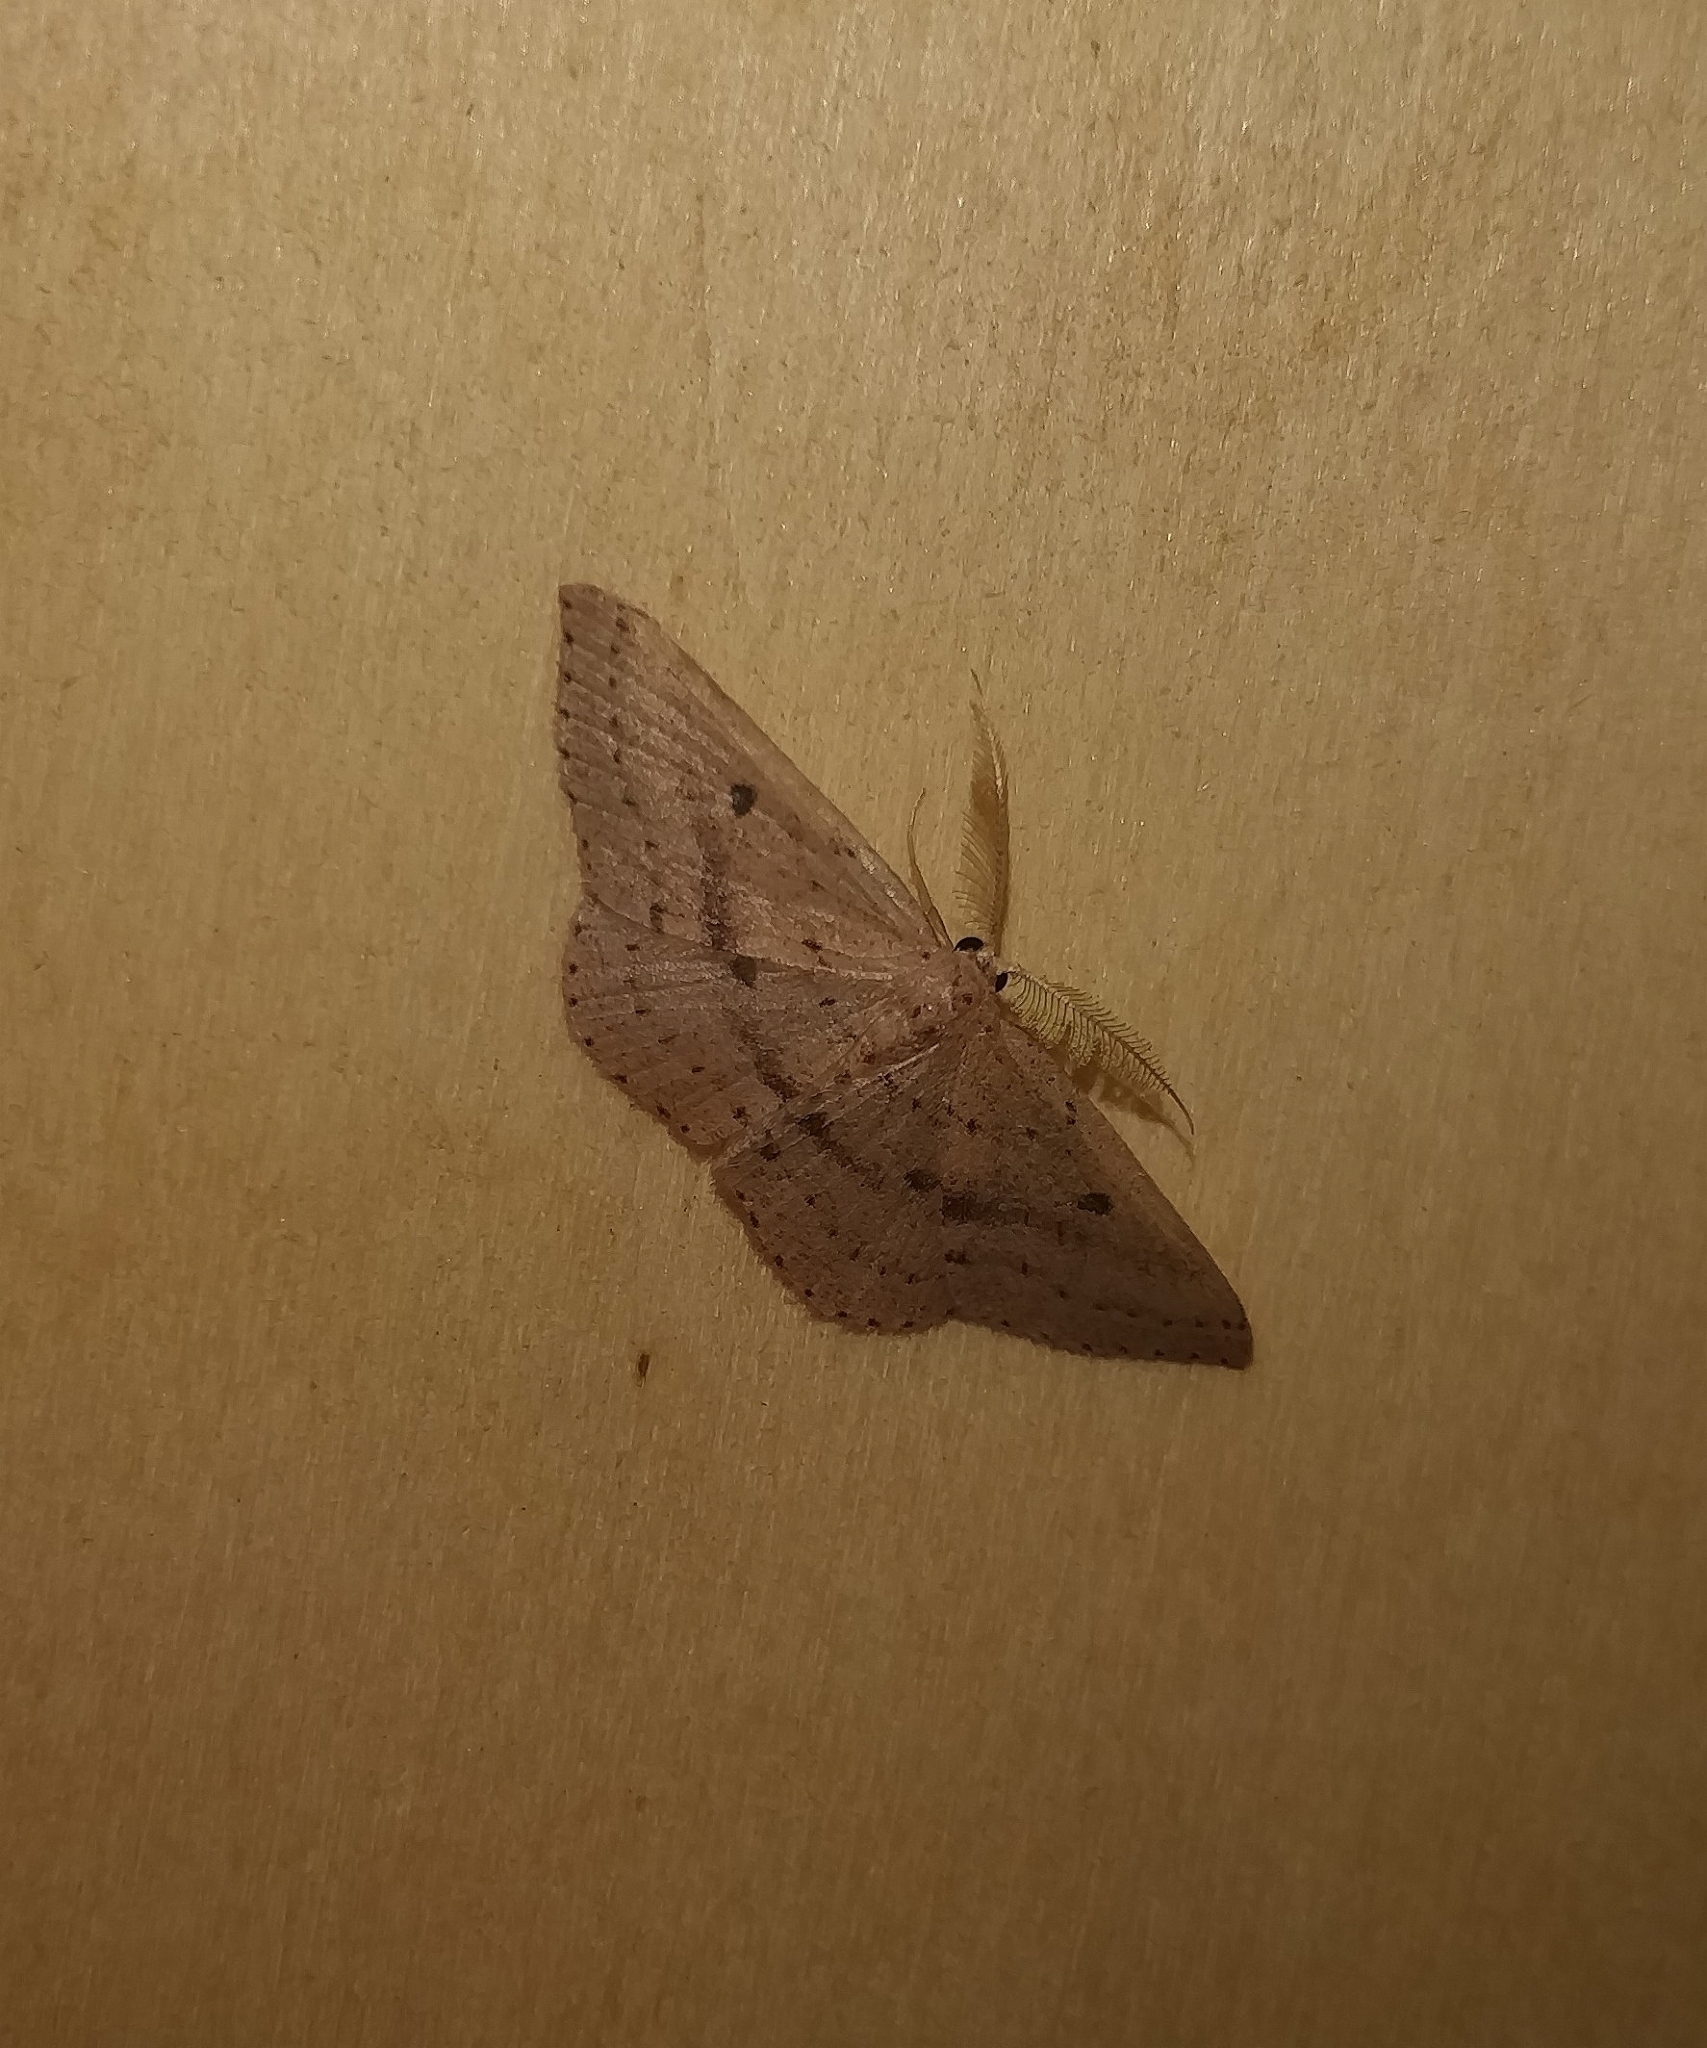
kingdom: Animalia
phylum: Arthropoda
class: Insecta
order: Lepidoptera
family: Geometridae
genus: Cyclophora
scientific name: Cyclophora maderensis
